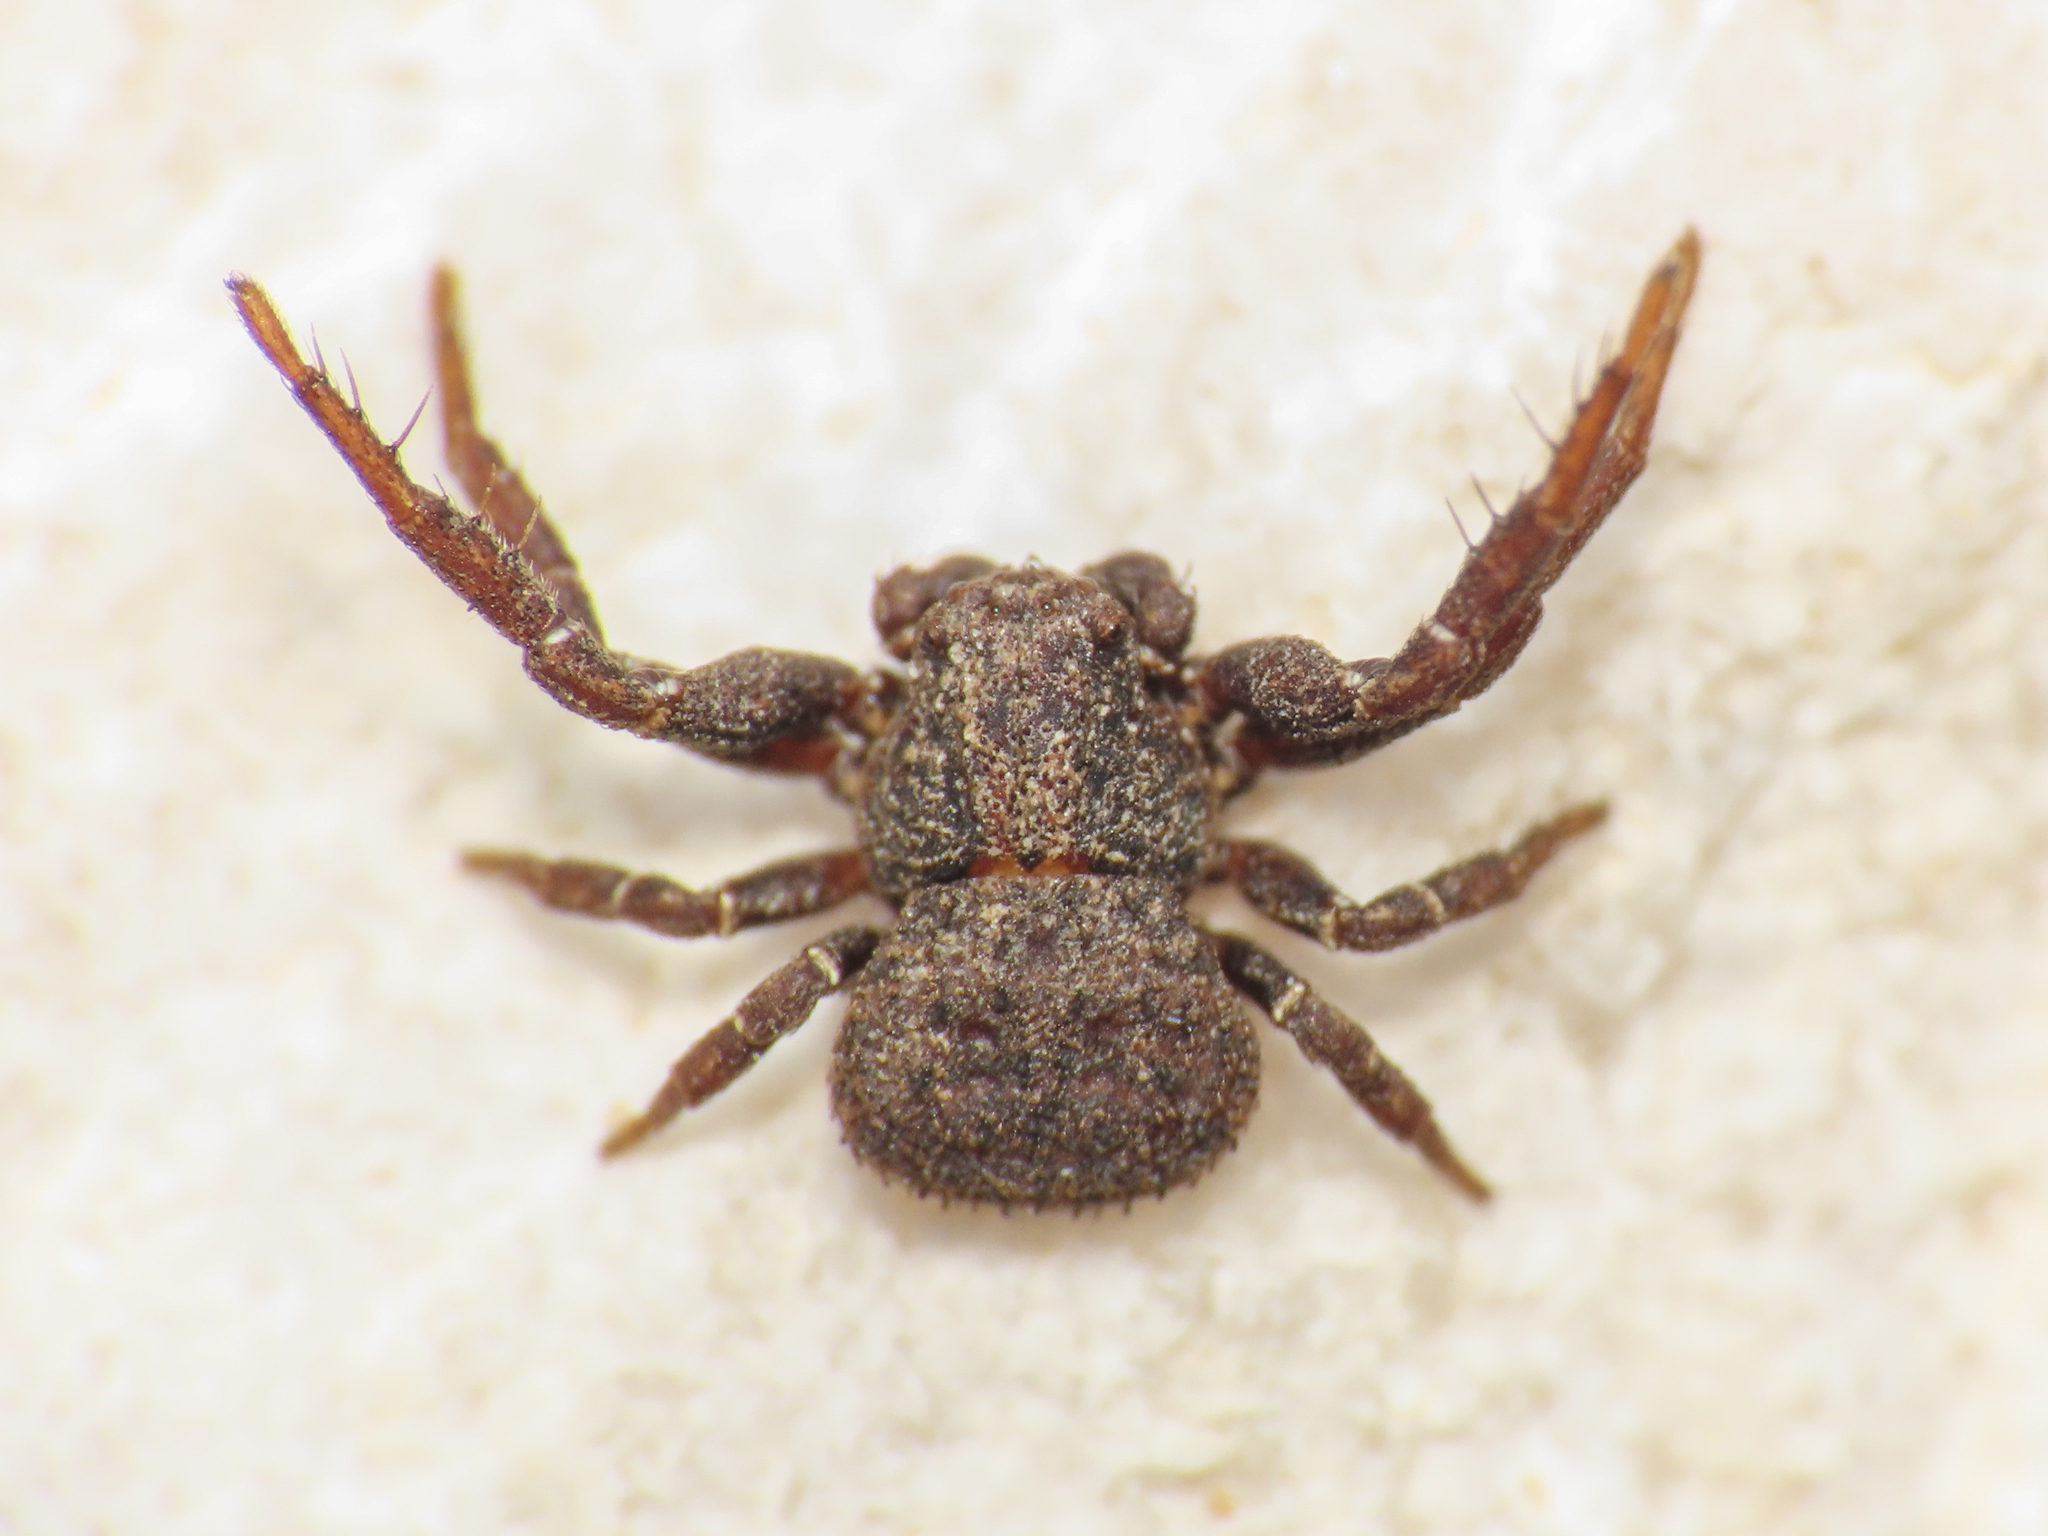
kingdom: Animalia
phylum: Arthropoda
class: Arachnida
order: Araneae
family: Thomisidae
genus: Ozyptila
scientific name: Ozyptila scabricula
